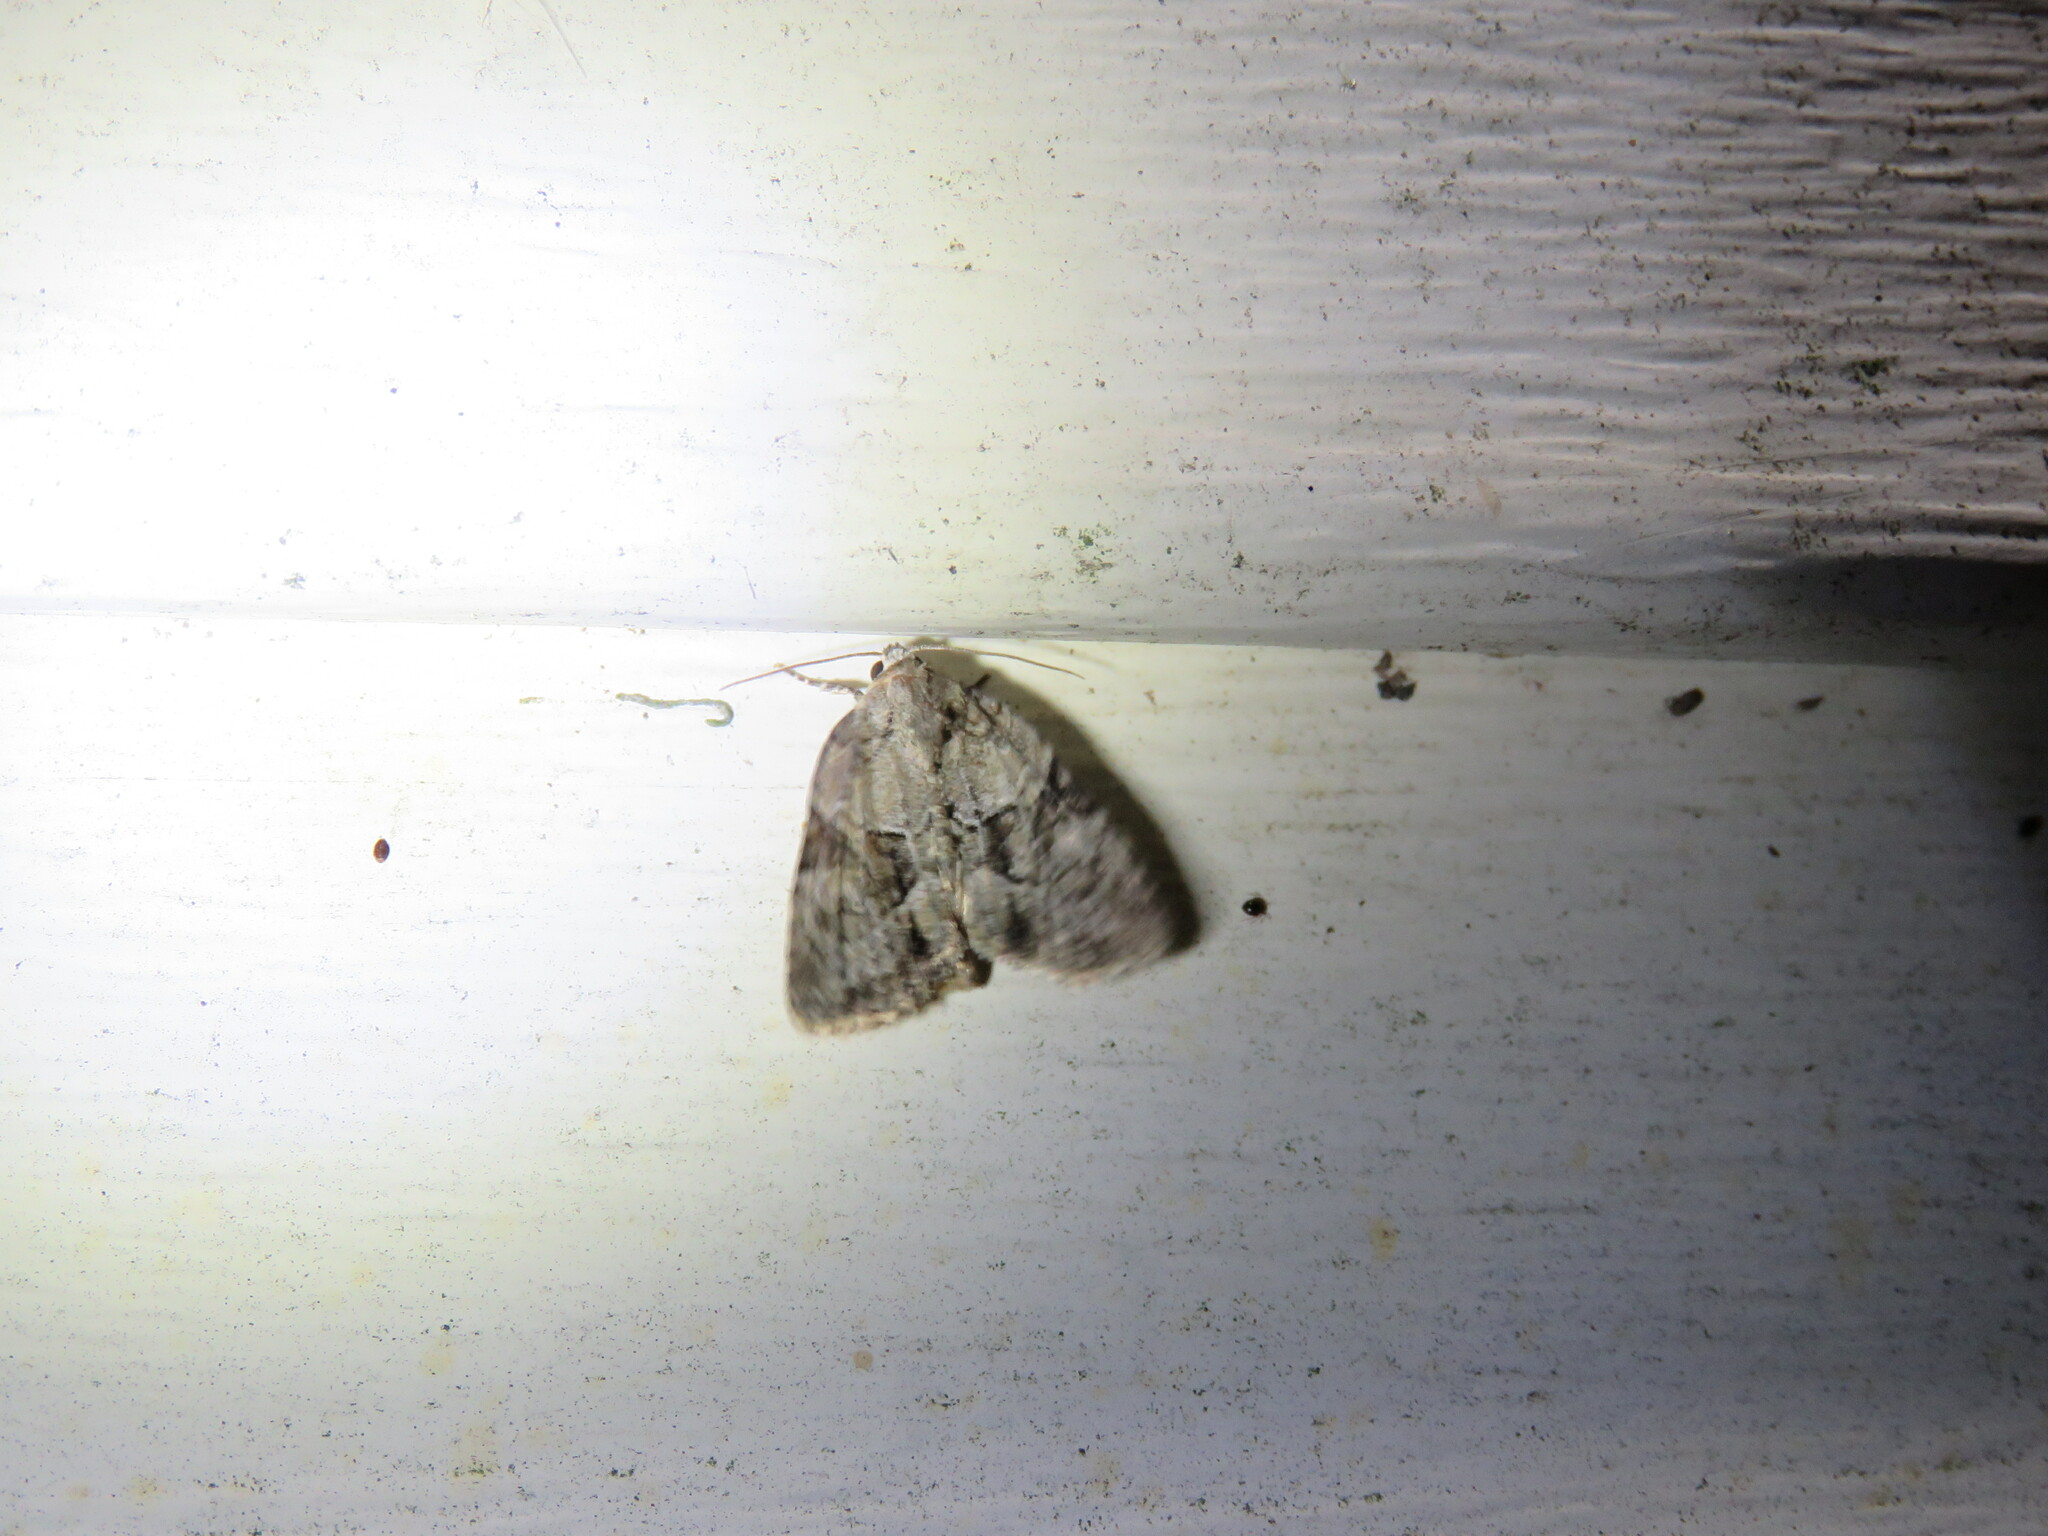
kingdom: Animalia
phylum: Arthropoda
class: Insecta
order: Lepidoptera
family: Noctuidae
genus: Neoligia
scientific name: Neoligia exhausta
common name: Exhausted brocade
